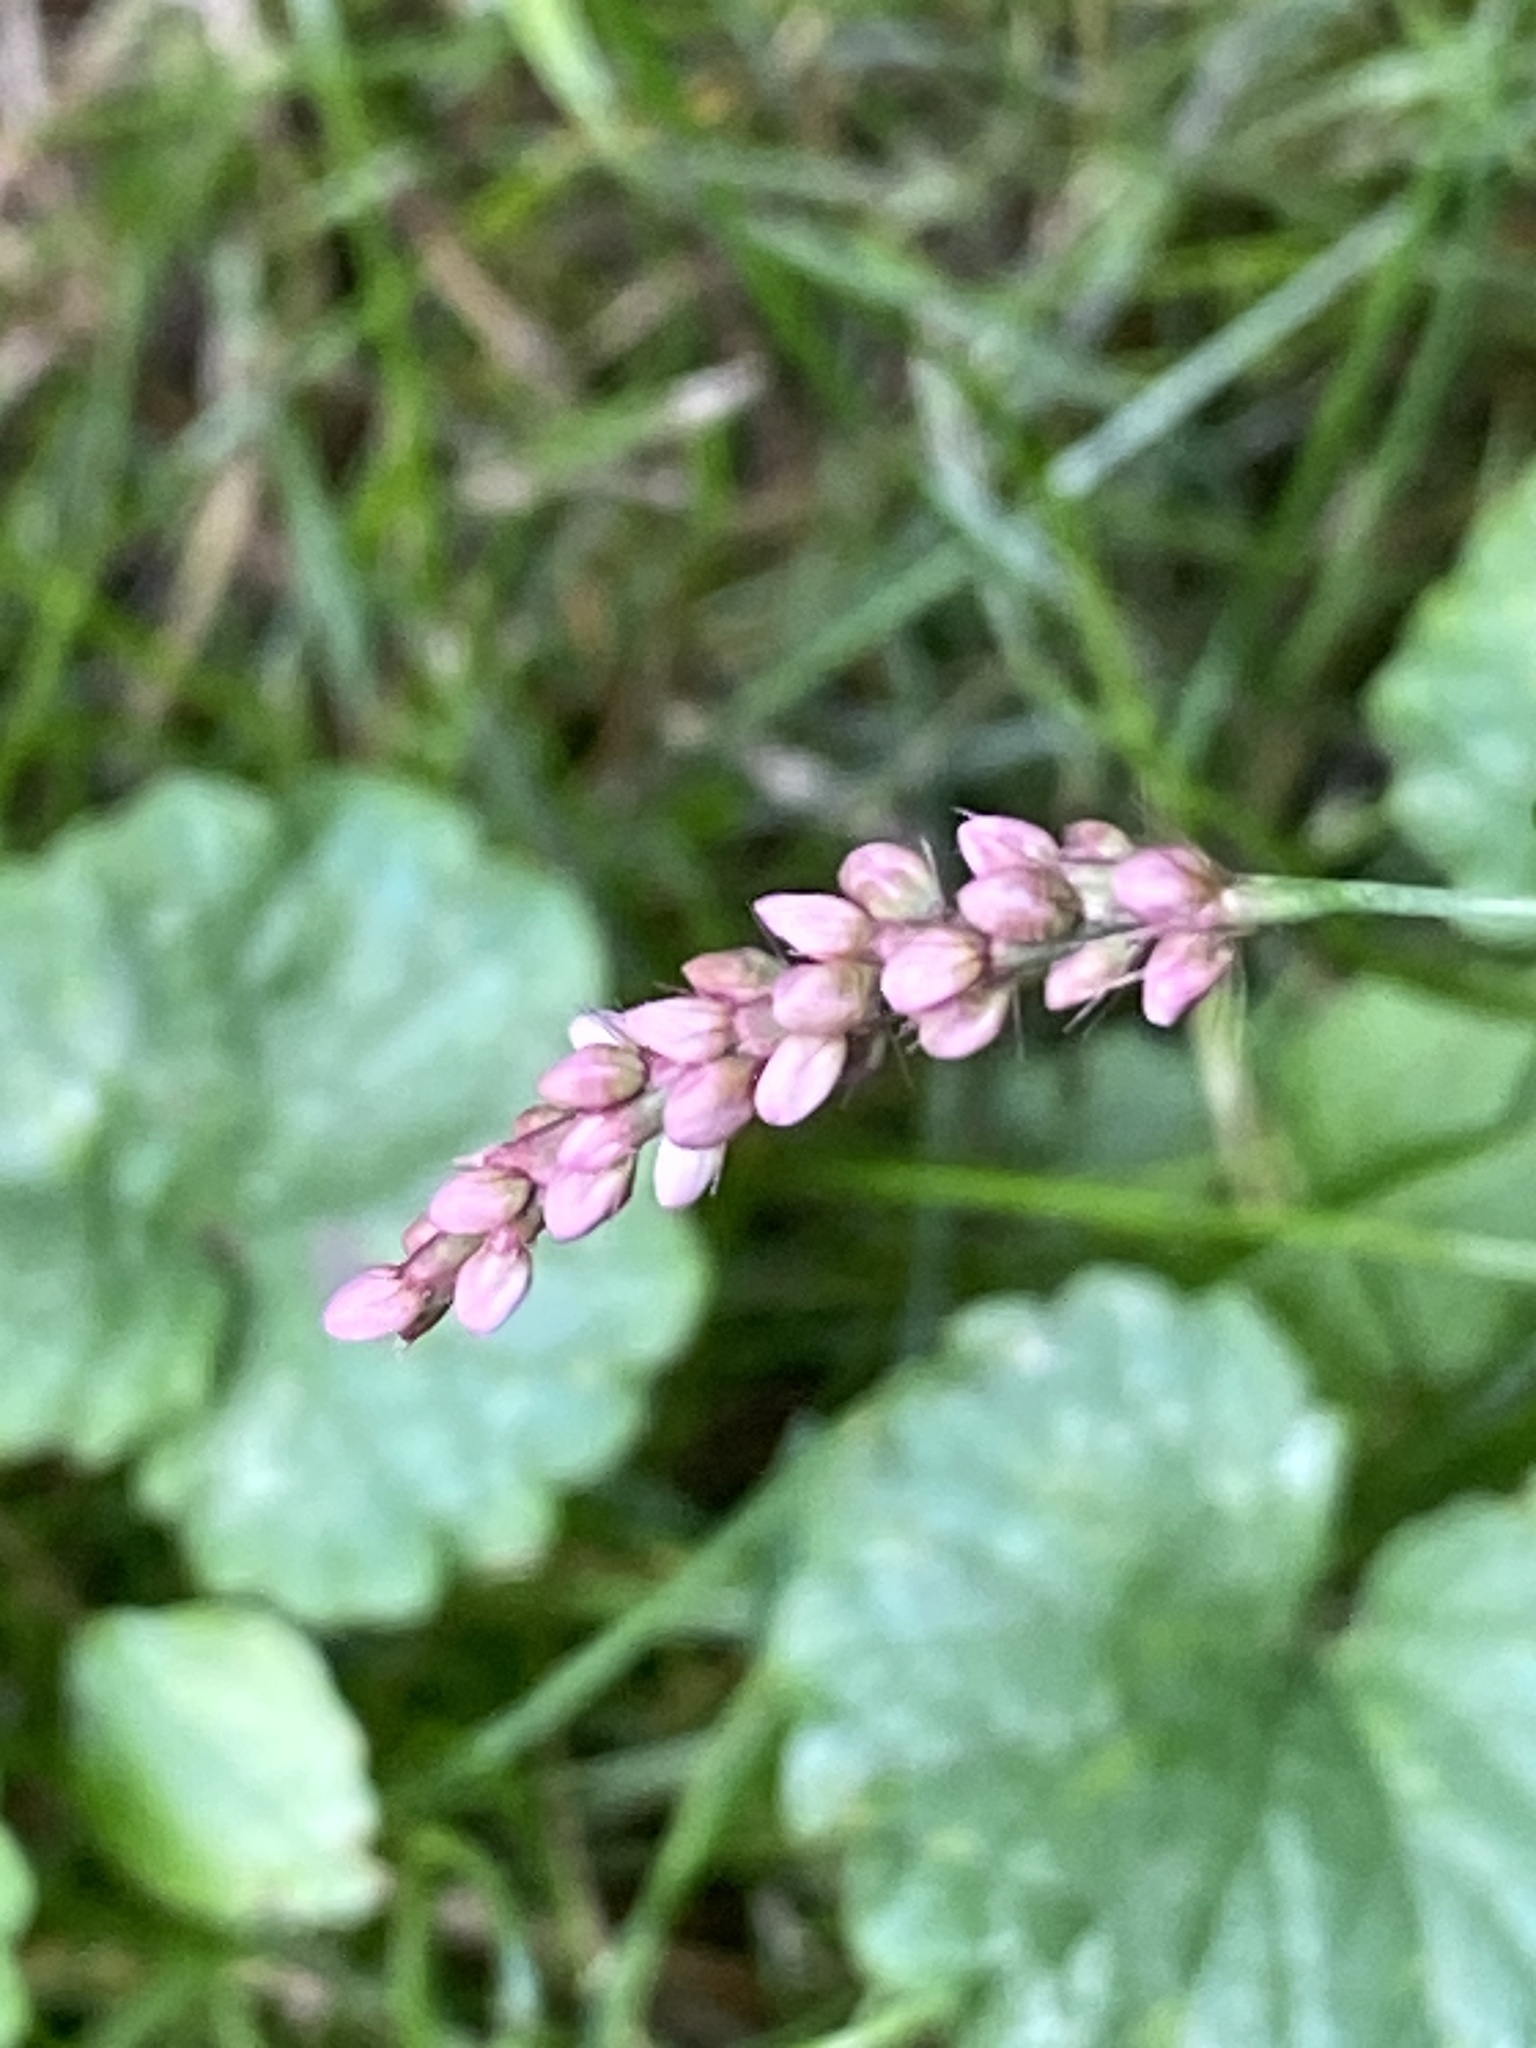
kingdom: Plantae
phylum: Tracheophyta
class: Magnoliopsida
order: Caryophyllales
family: Polygonaceae
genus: Persicaria
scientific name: Persicaria longiseta
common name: Bristly lady's-thumb
